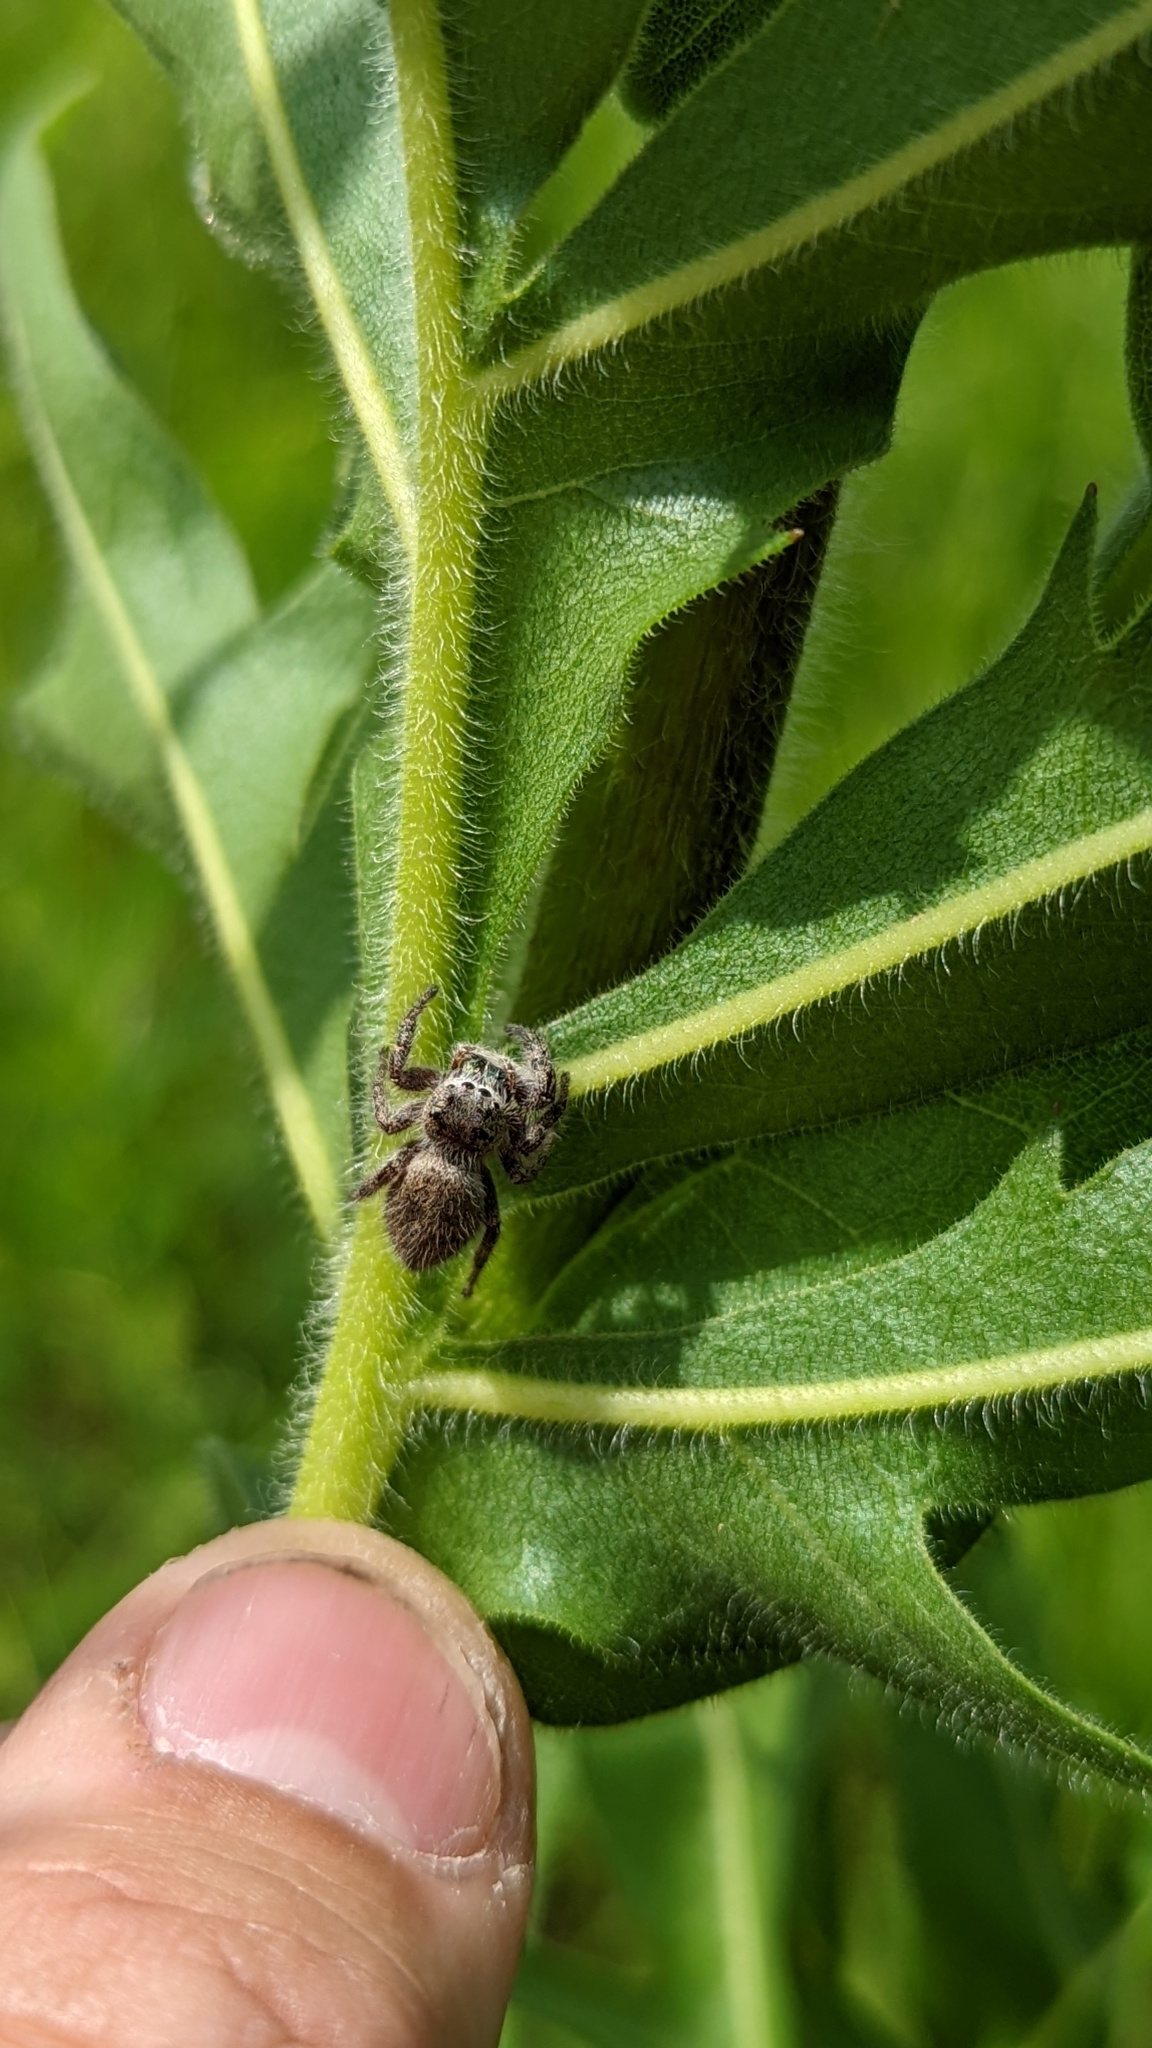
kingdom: Animalia
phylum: Arthropoda
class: Arachnida
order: Araneae
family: Salticidae
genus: Phidippus
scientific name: Phidippus princeps
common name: Grayish jumping spider
